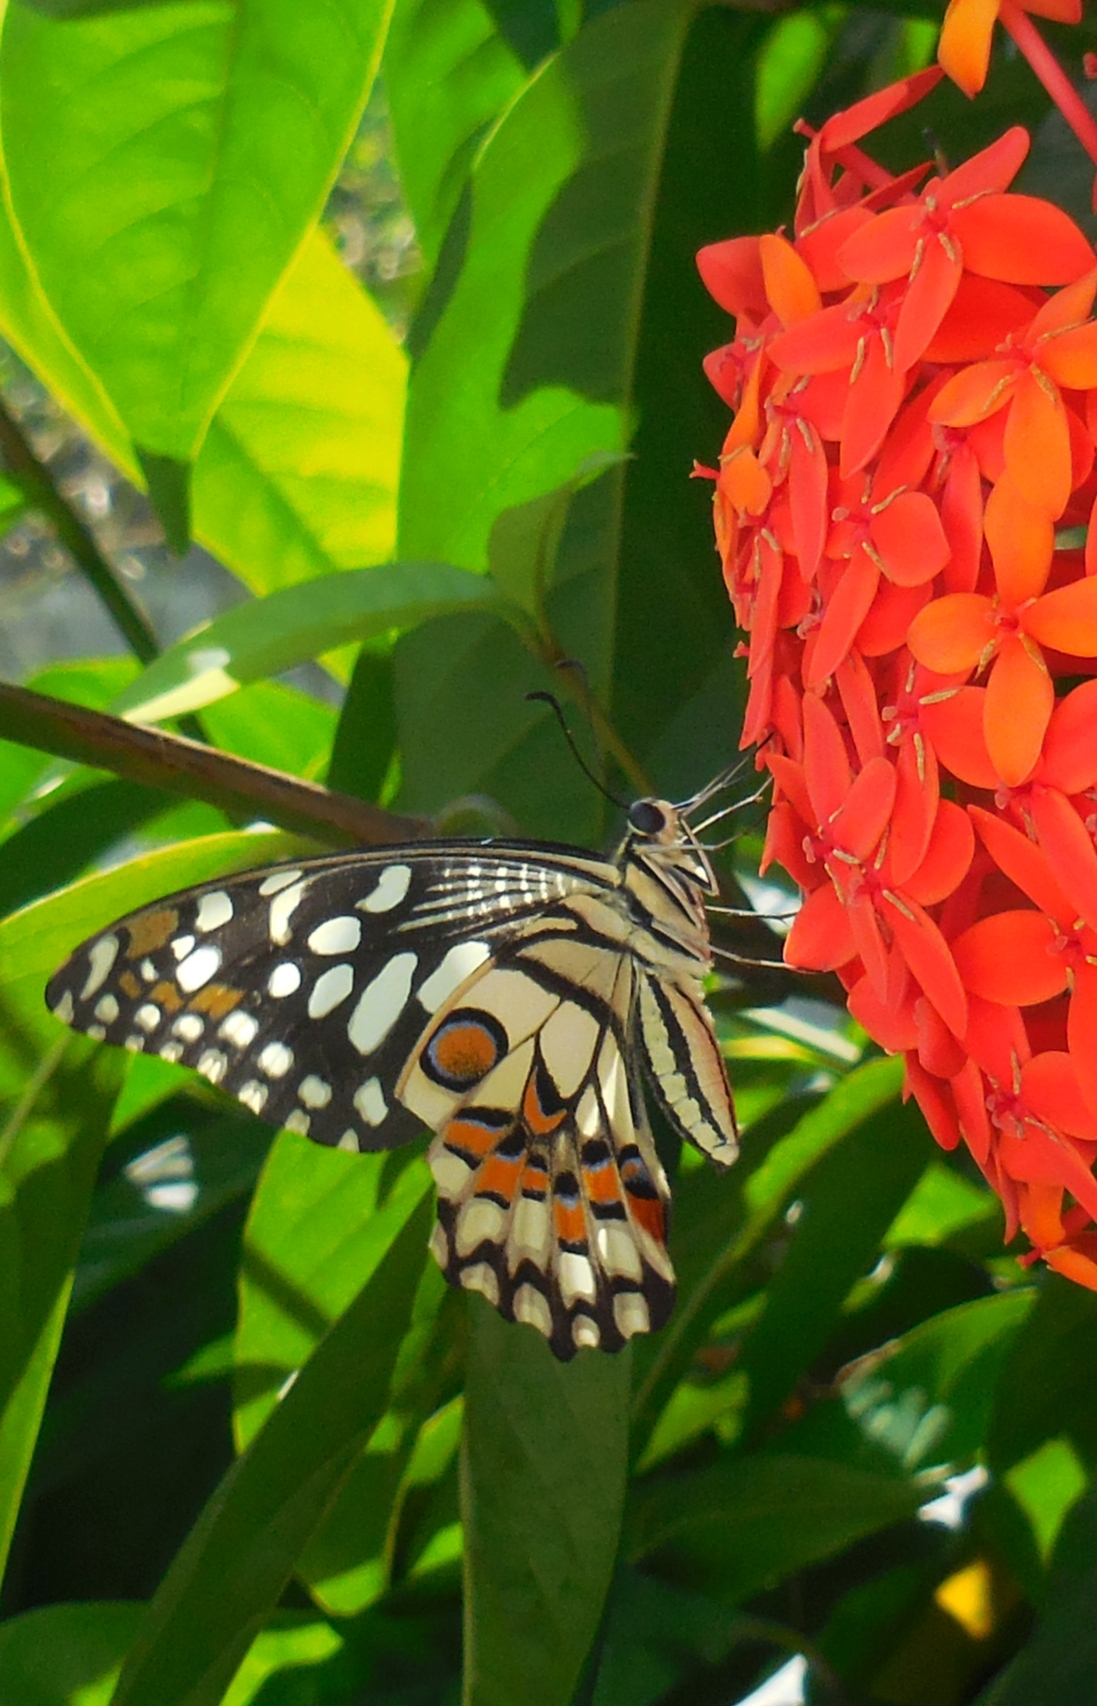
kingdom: Animalia
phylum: Arthropoda
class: Insecta
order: Lepidoptera
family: Papilionidae
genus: Papilio
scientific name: Papilio demoleus
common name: Lime butterfly
